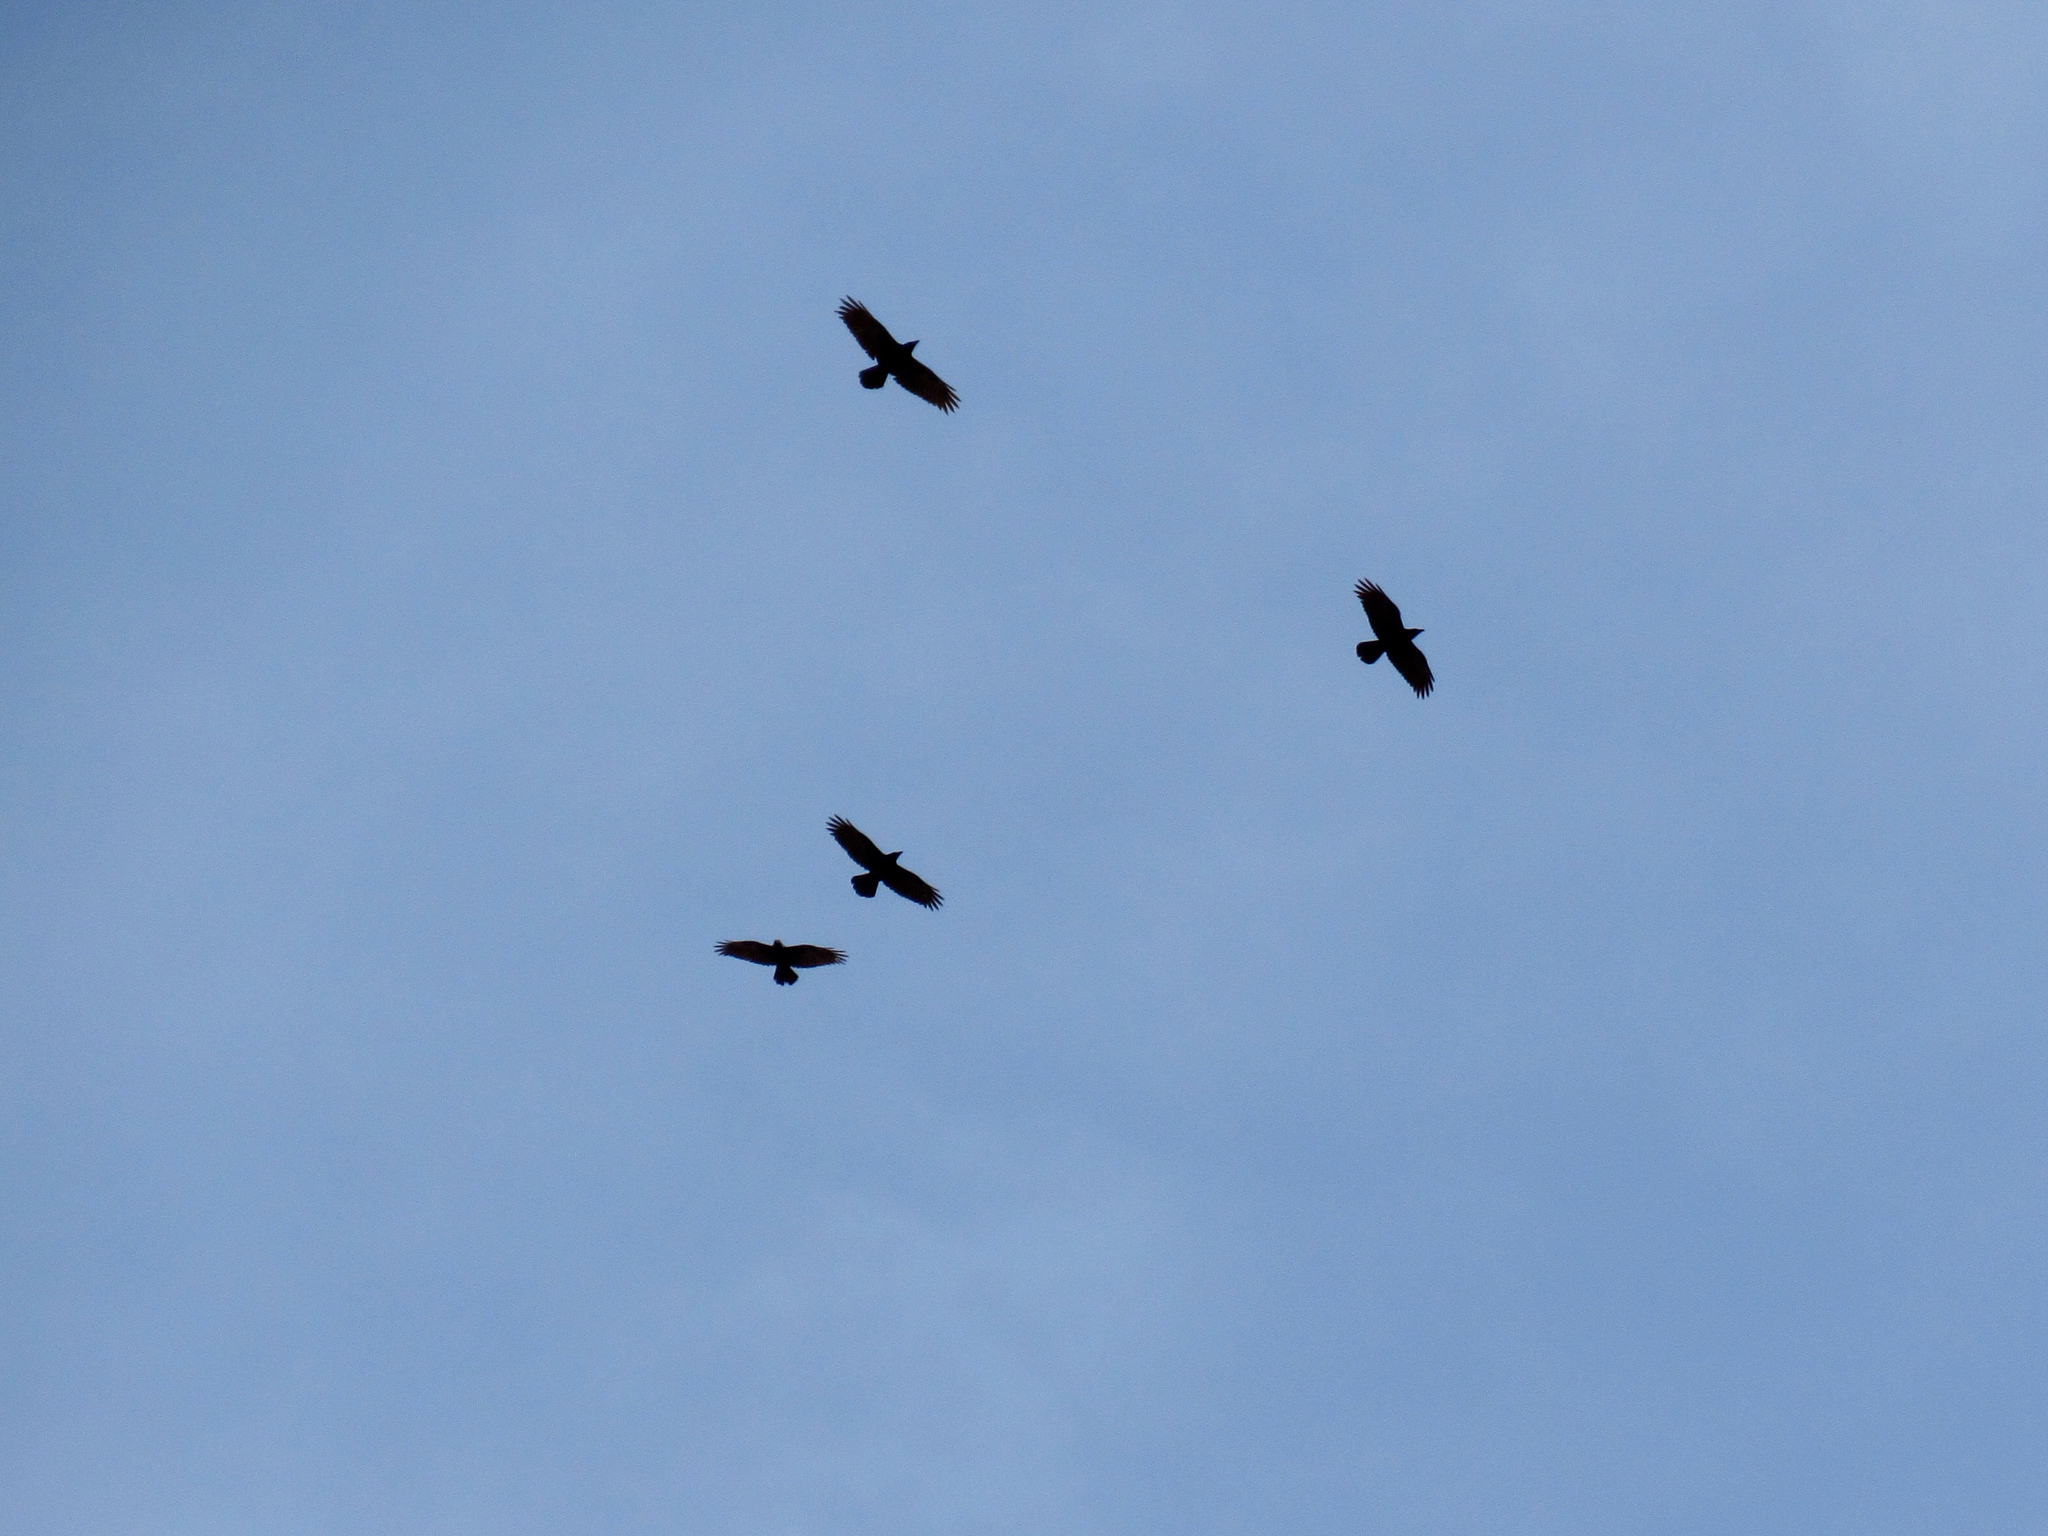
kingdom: Animalia
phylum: Chordata
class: Aves
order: Passeriformes
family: Corvidae
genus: Corvus
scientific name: Corvus corax
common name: Common raven
